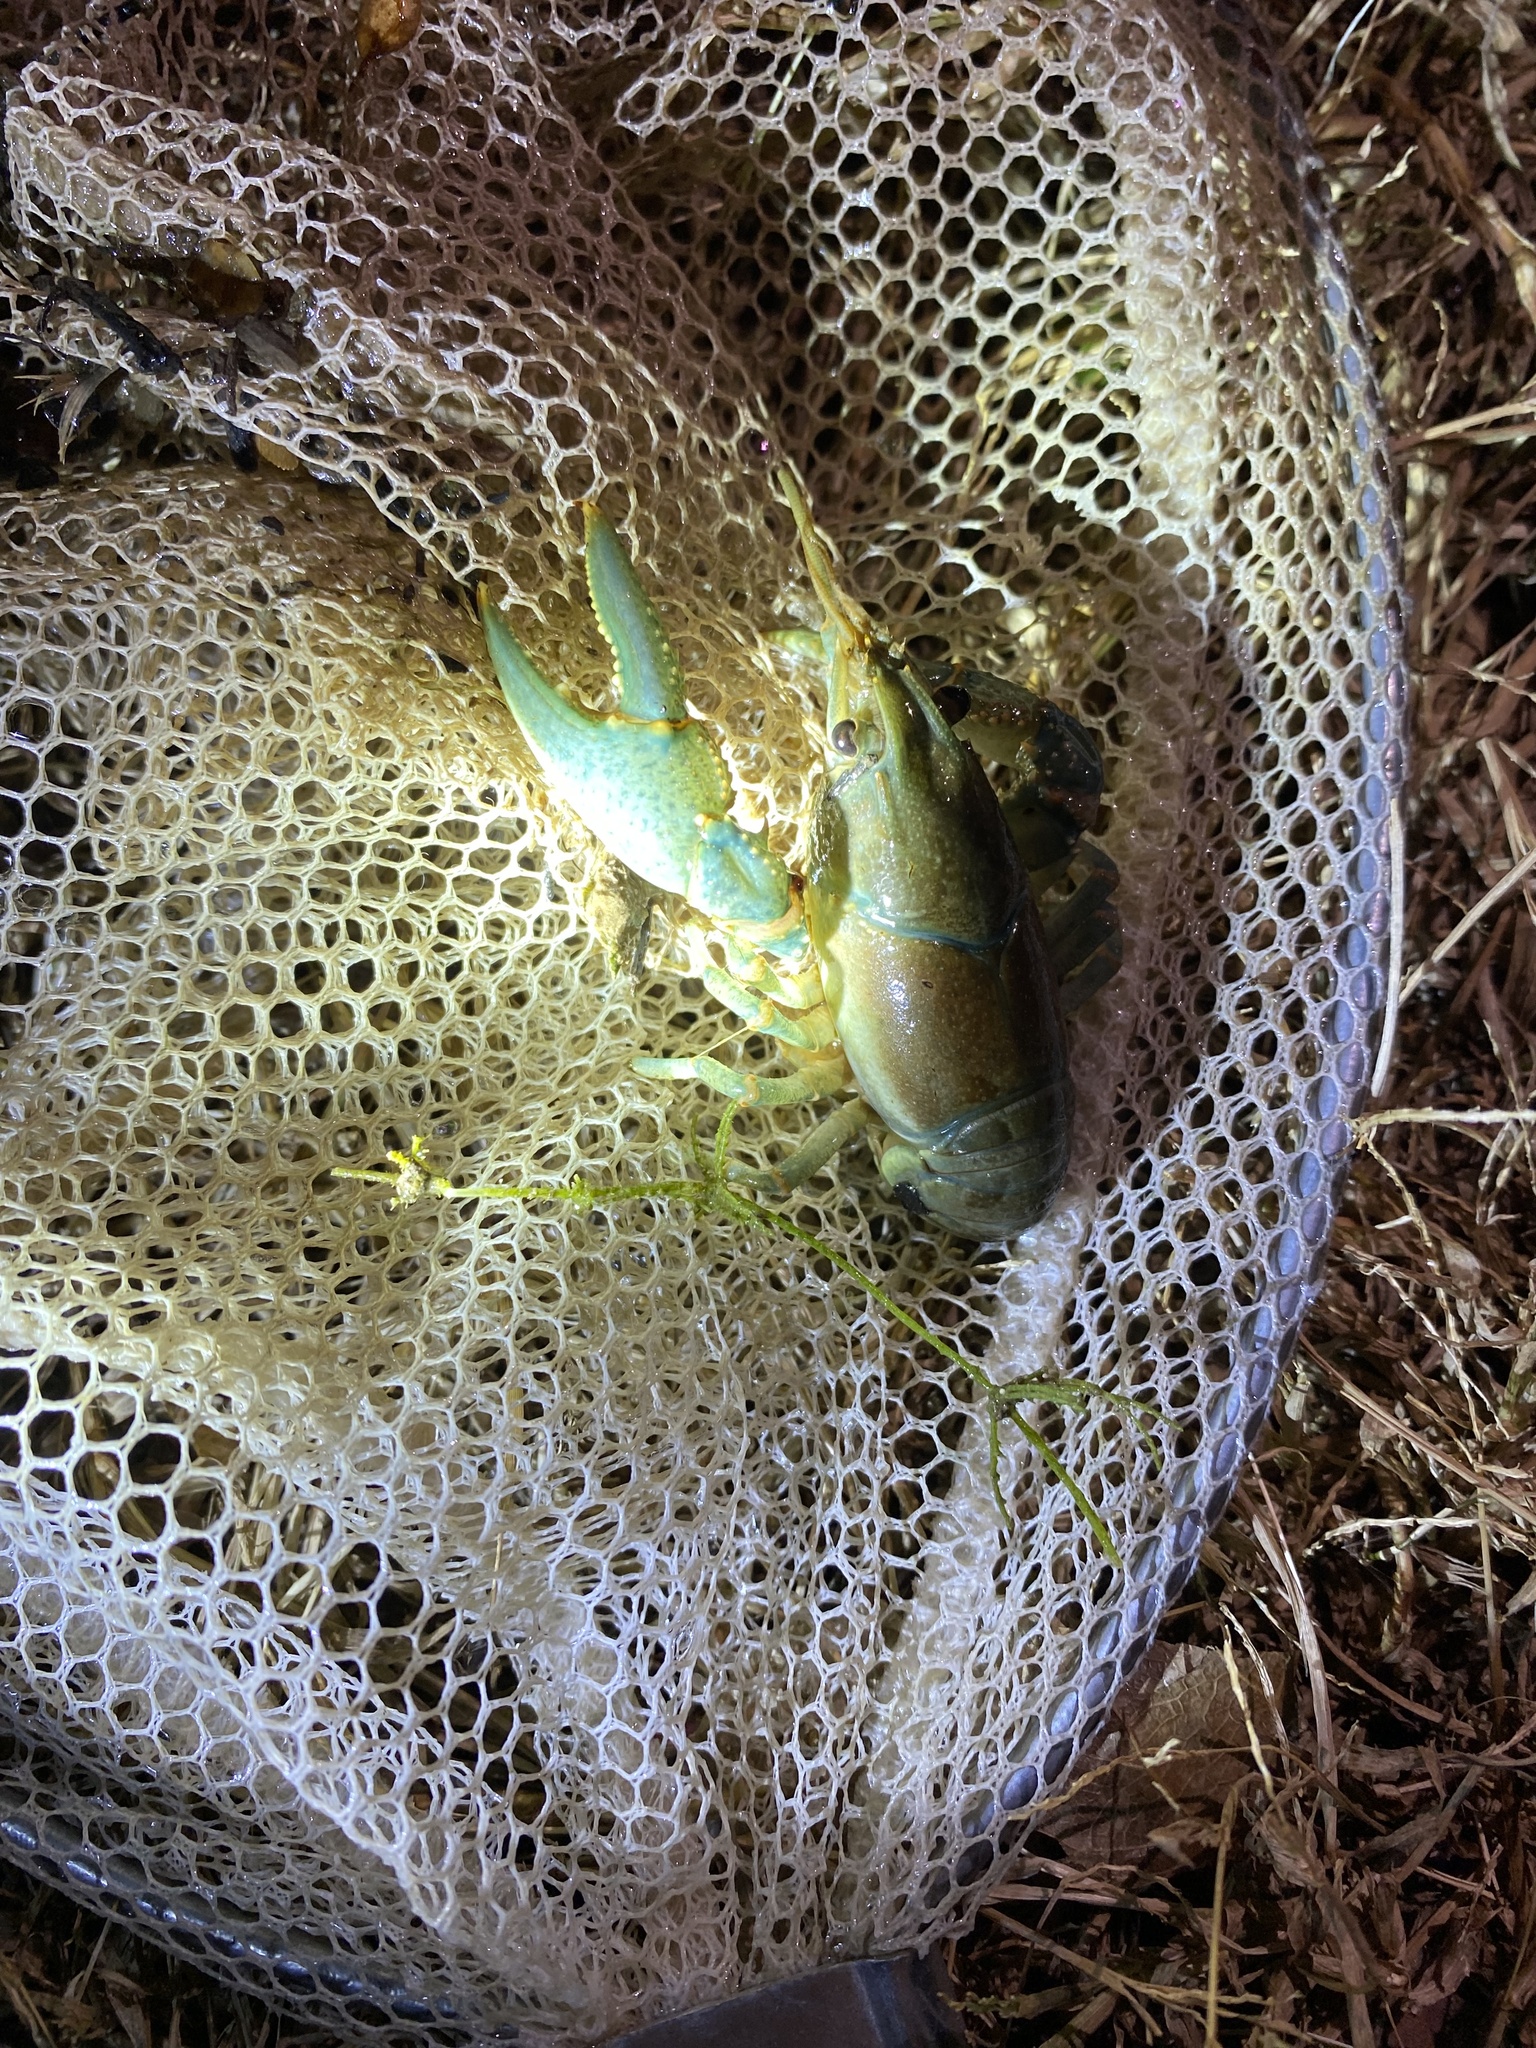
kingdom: Animalia
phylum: Arthropoda
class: Malacostraca
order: Decapoda
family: Cambaridae
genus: Faxonius
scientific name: Faxonius virilis
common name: Virile crayfish
